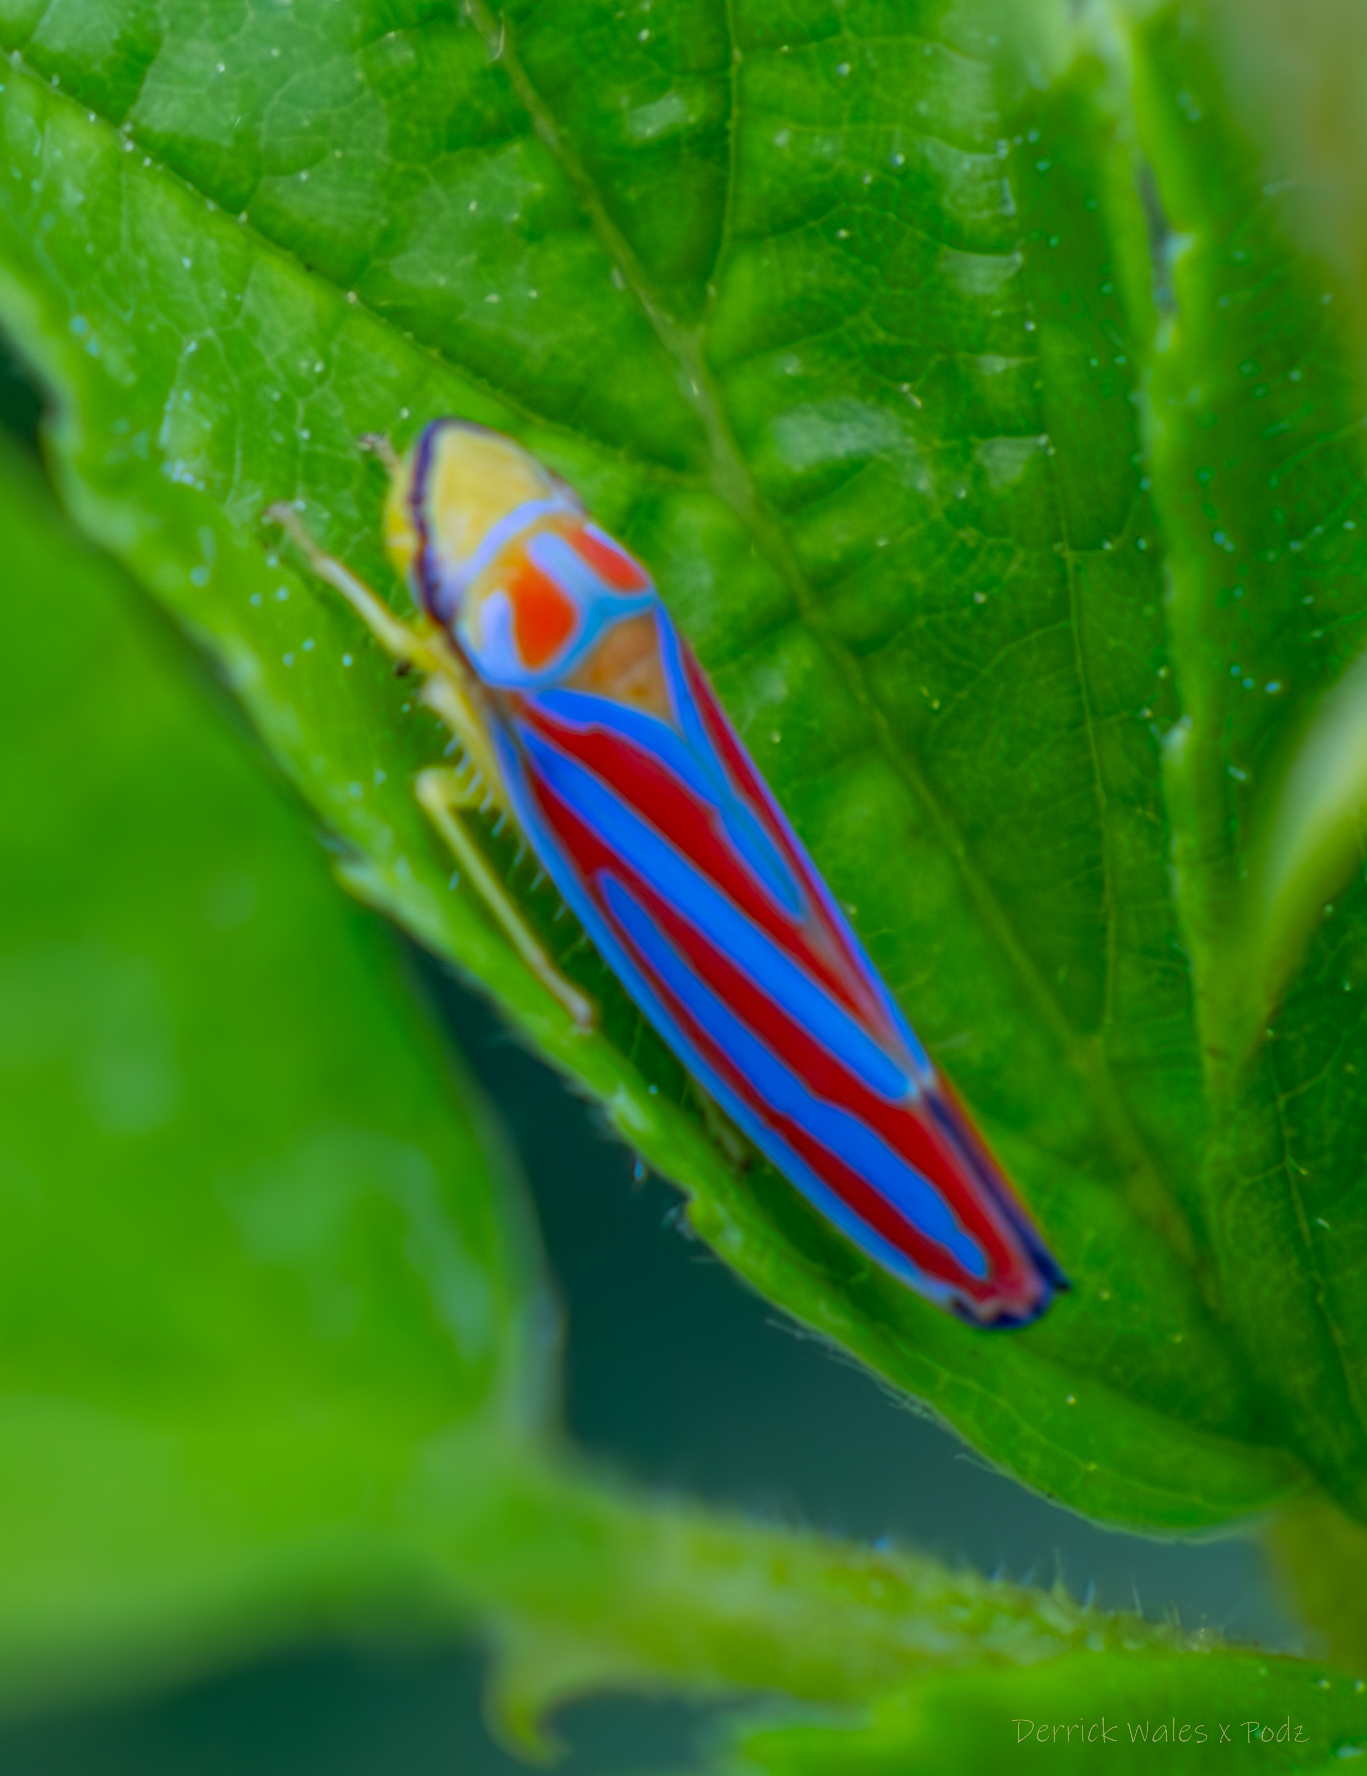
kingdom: Animalia
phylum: Arthropoda
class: Insecta
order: Hemiptera
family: Cicadellidae
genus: Graphocephala
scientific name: Graphocephala coccinea
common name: Candy-striped leafhopper
